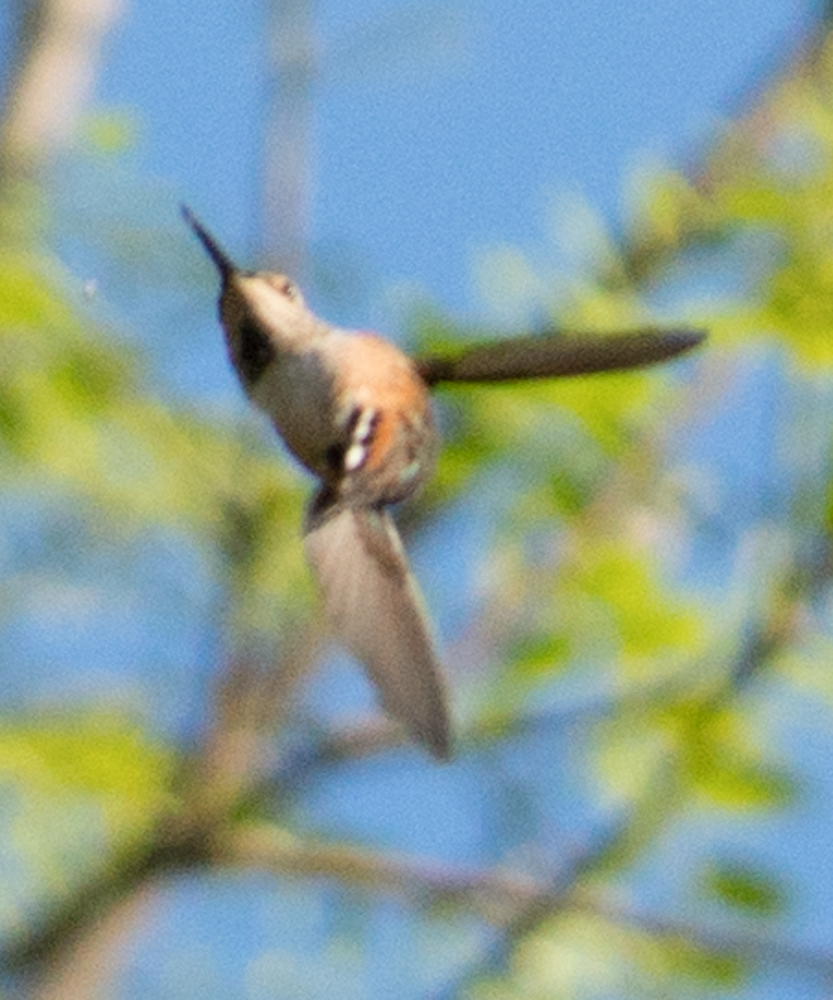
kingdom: Animalia
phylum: Chordata
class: Aves
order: Apodiformes
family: Trochilidae
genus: Selasphorus
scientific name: Selasphorus sasin
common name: Allen's hummingbird
